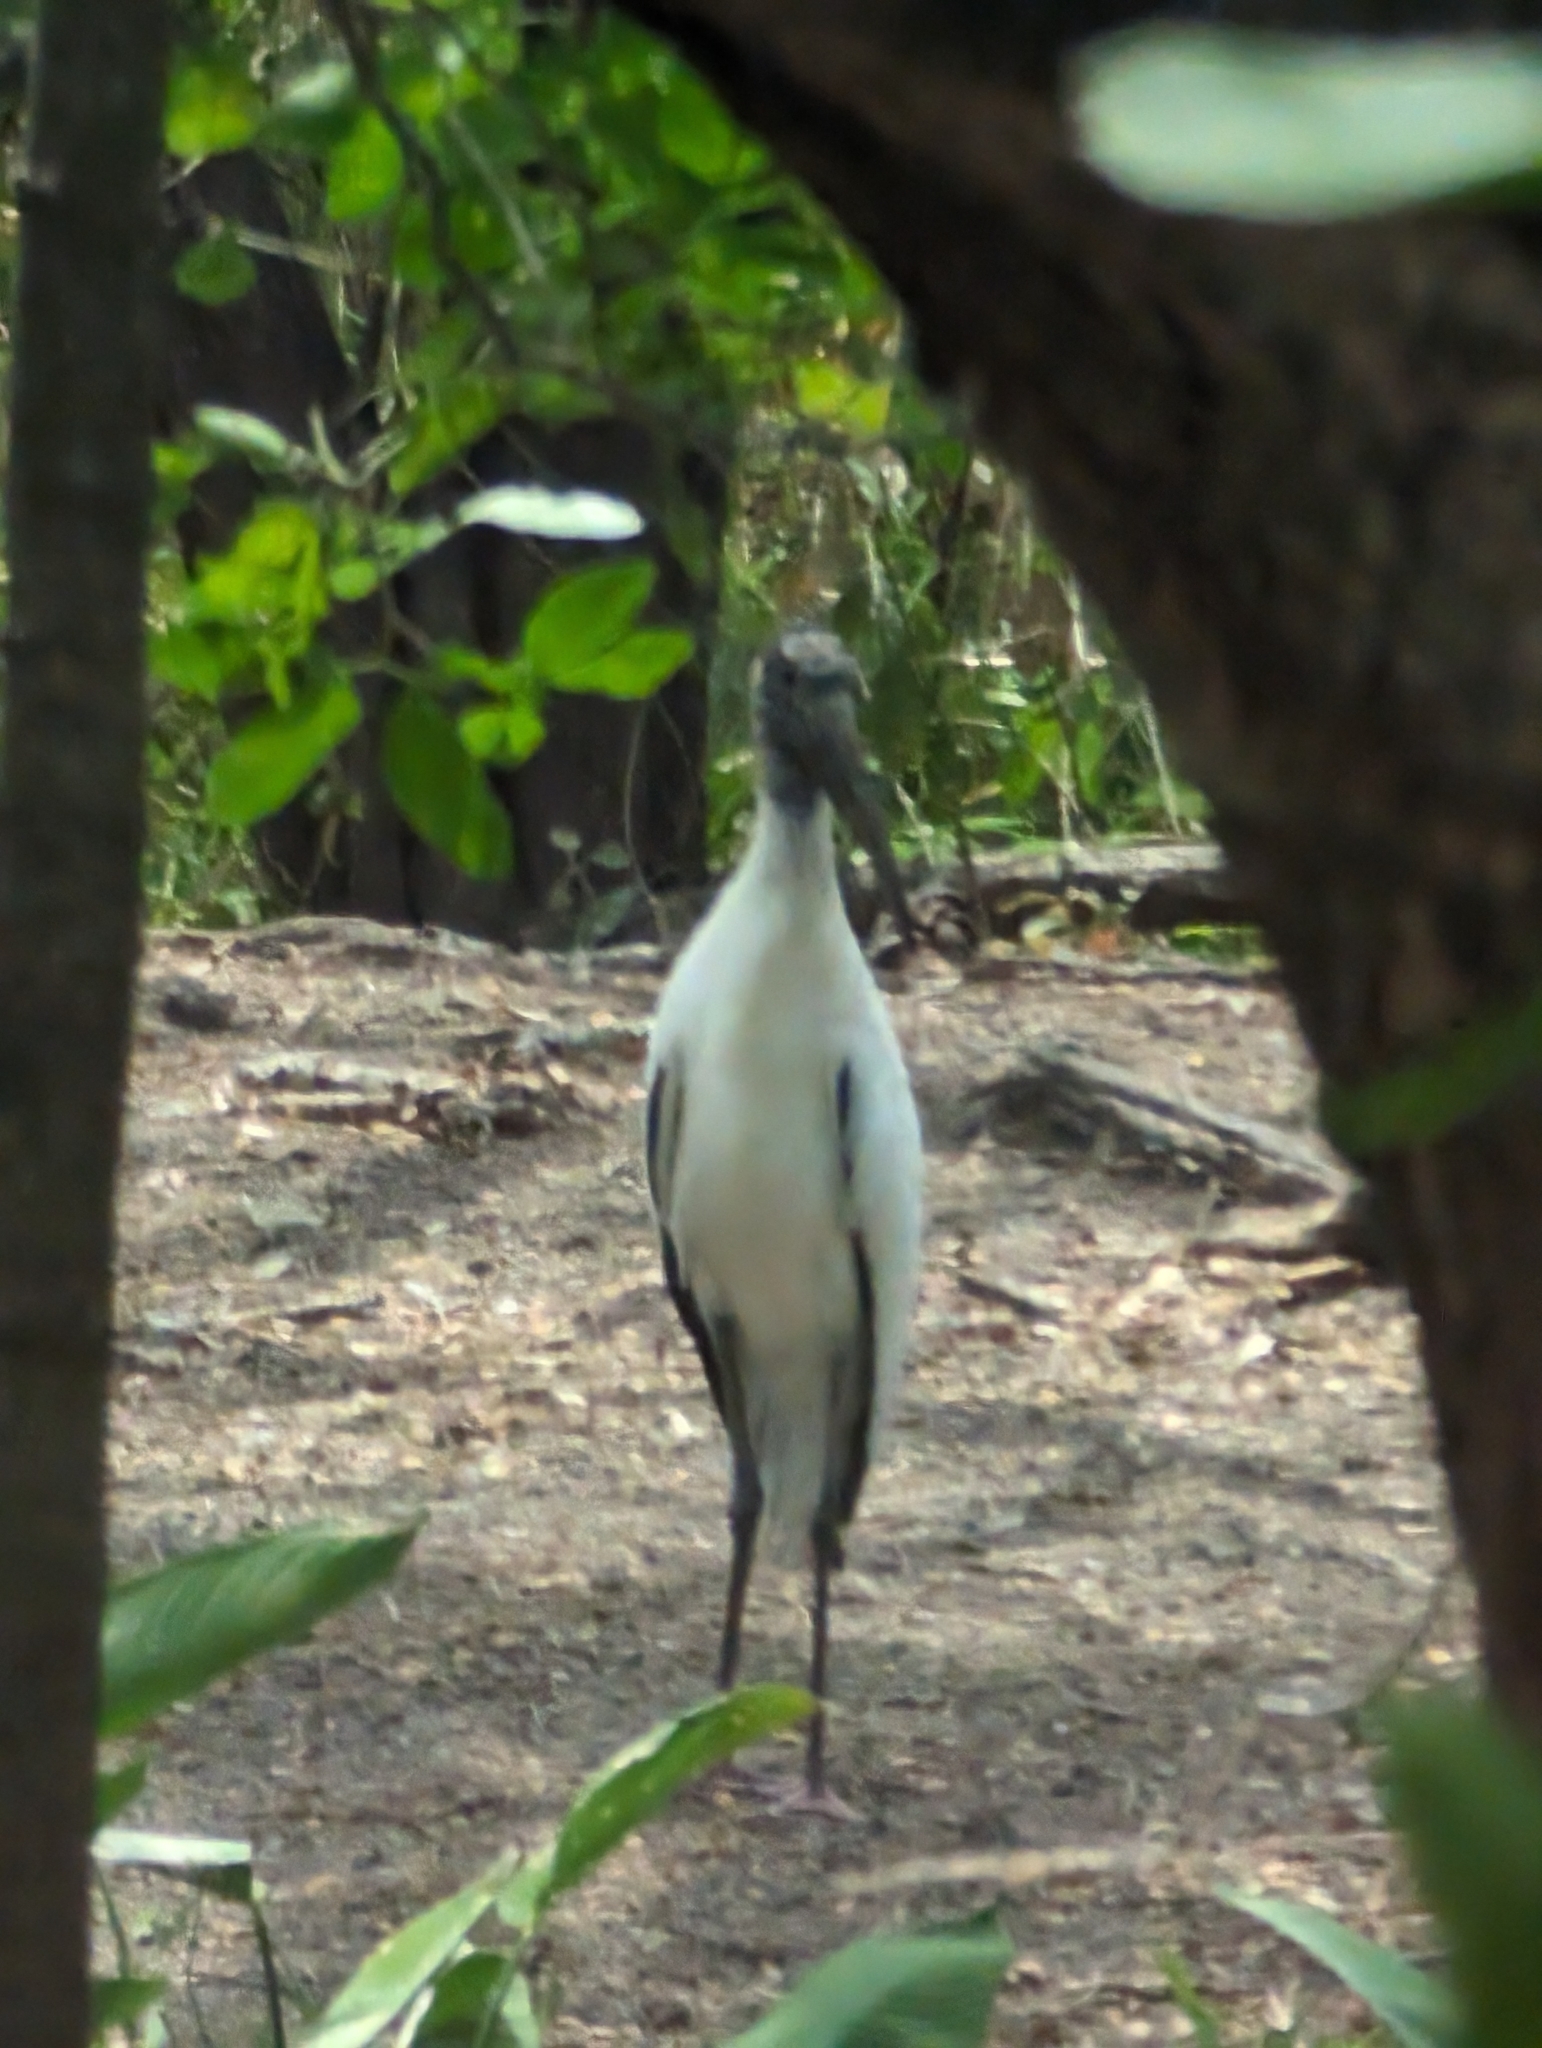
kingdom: Animalia
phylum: Chordata
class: Aves
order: Ciconiiformes
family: Ciconiidae
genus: Mycteria
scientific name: Mycteria americana
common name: Wood stork
